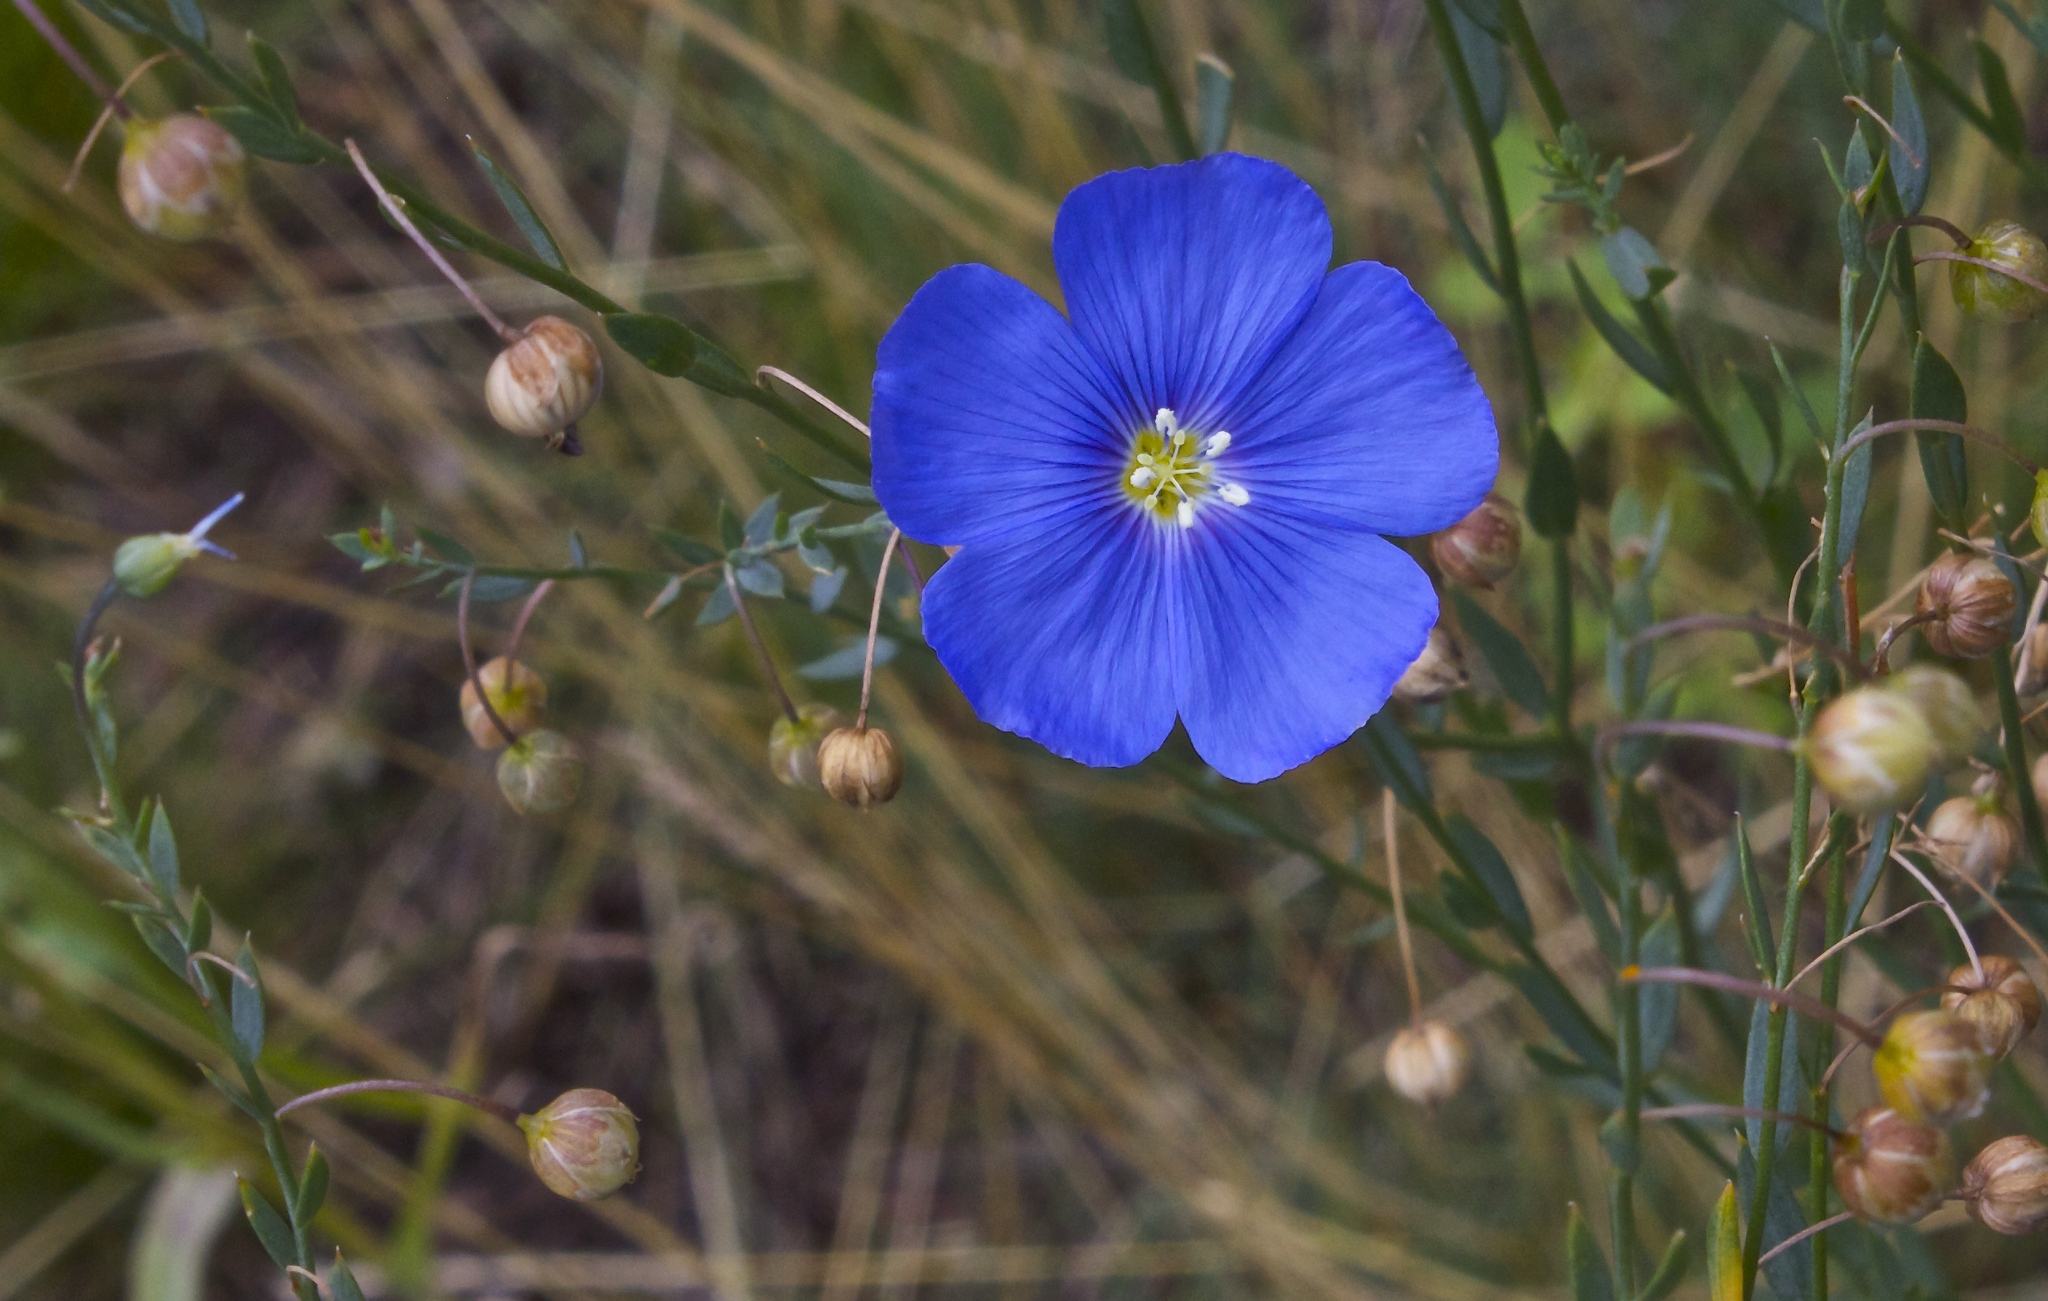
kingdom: Plantae
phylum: Tracheophyta
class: Magnoliopsida
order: Malpighiales
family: Linaceae
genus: Linum
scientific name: Linum lewisii
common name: Prairie flax
